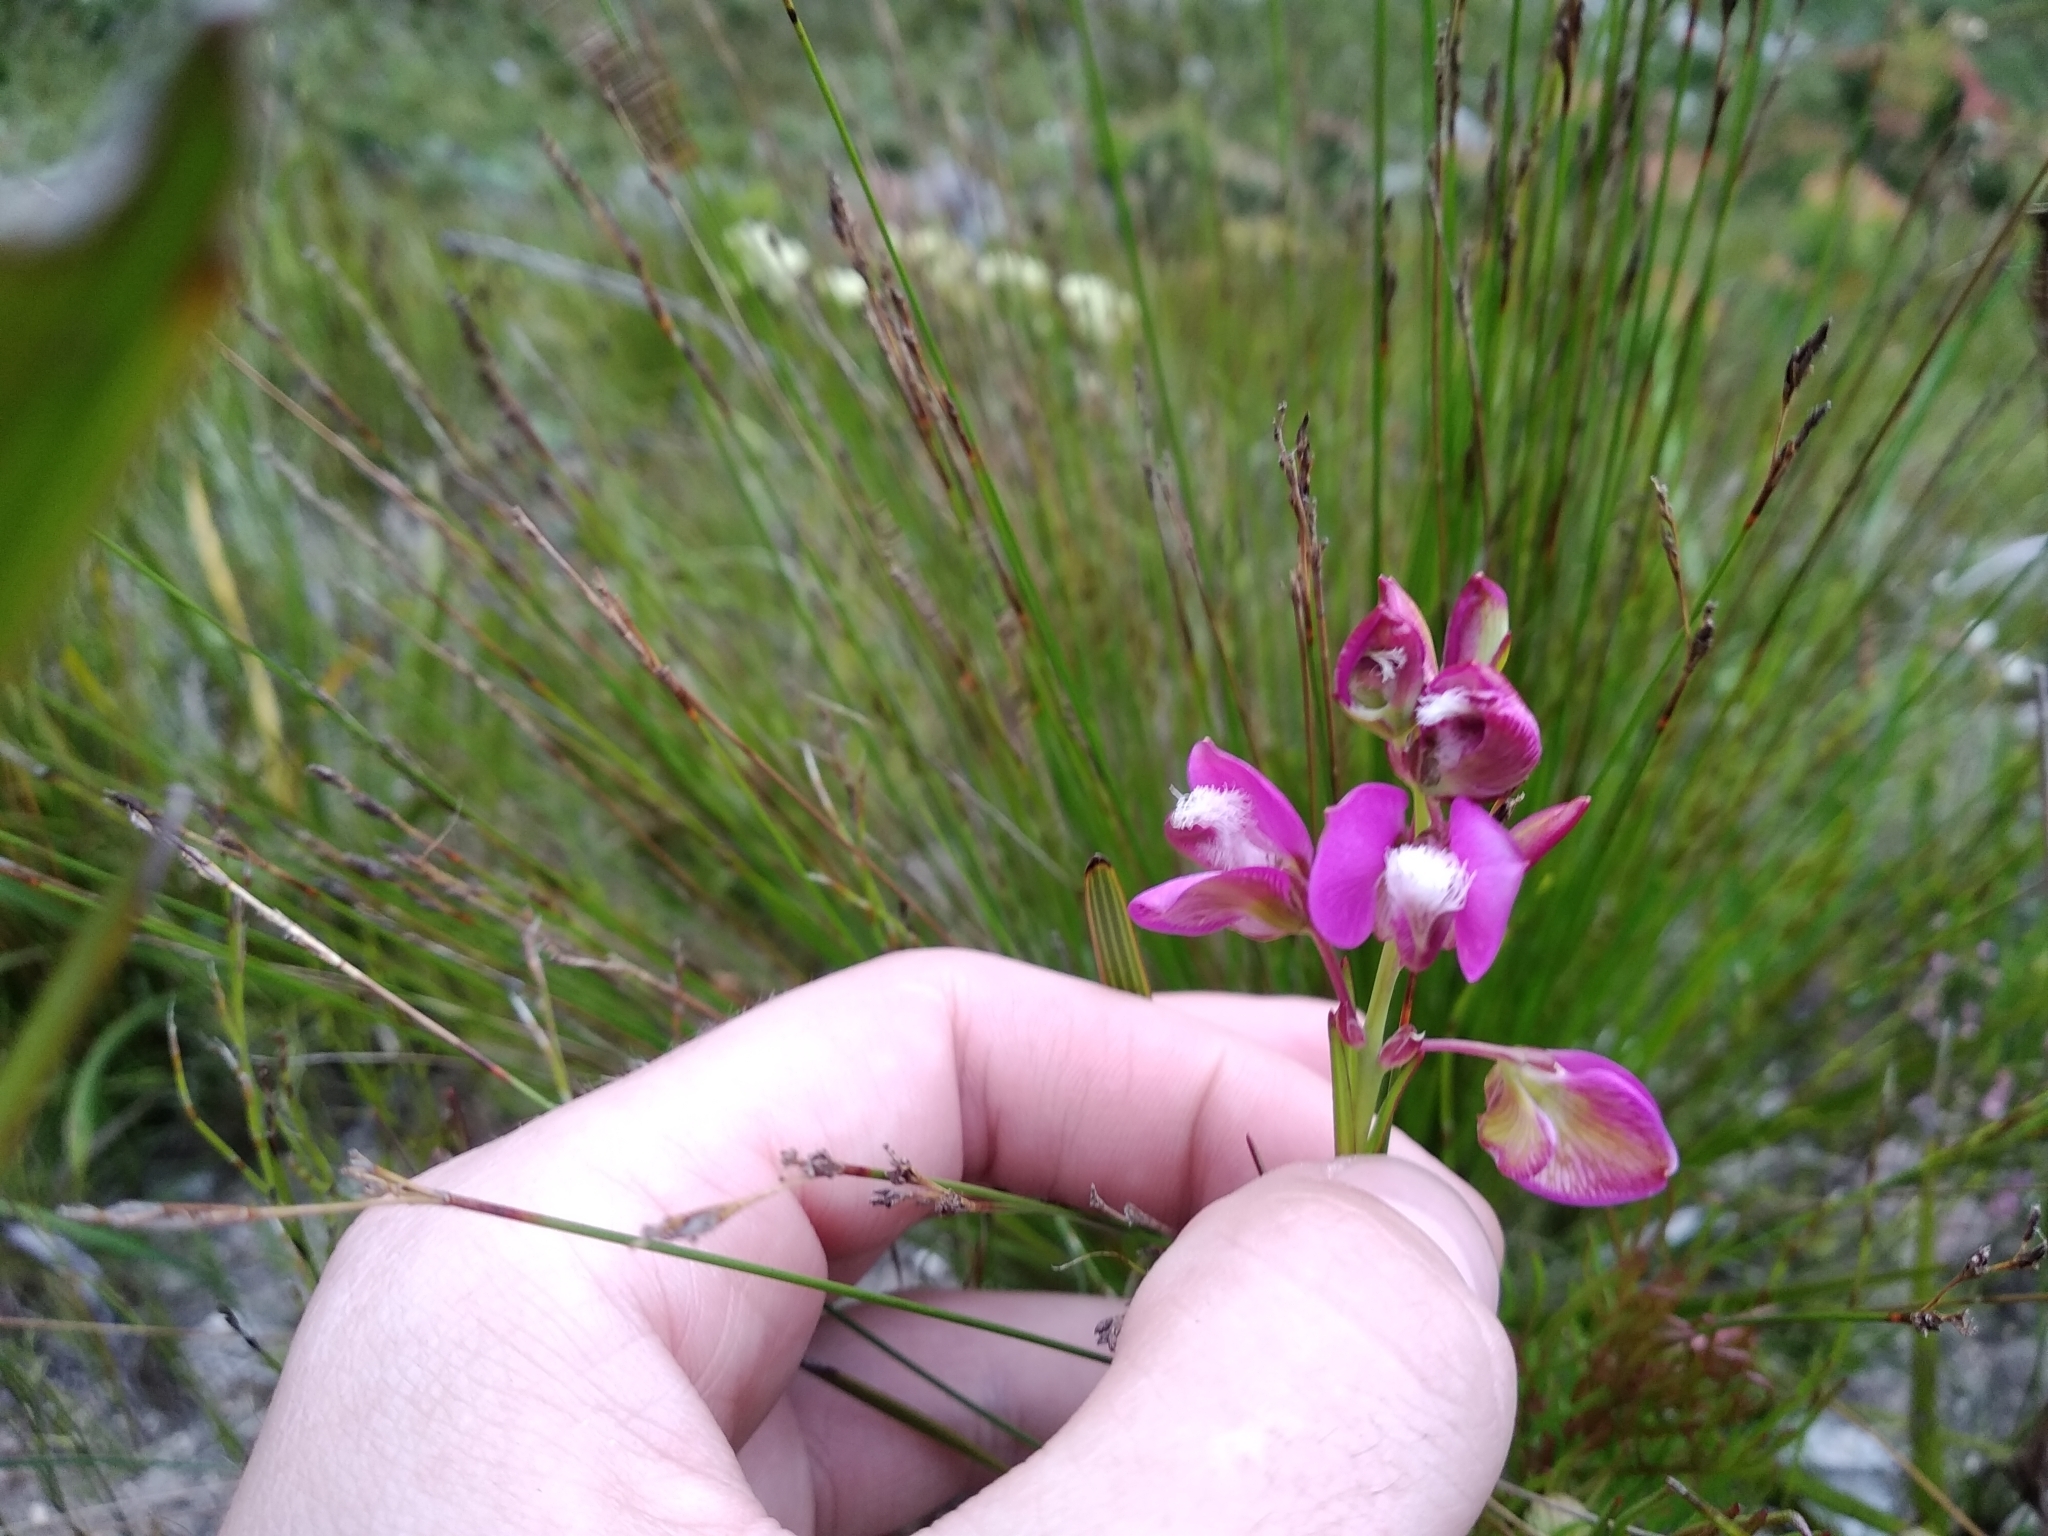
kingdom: Plantae
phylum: Tracheophyta
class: Magnoliopsida
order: Fabales
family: Polygalaceae
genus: Polygala
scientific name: Polygala bracteolata
